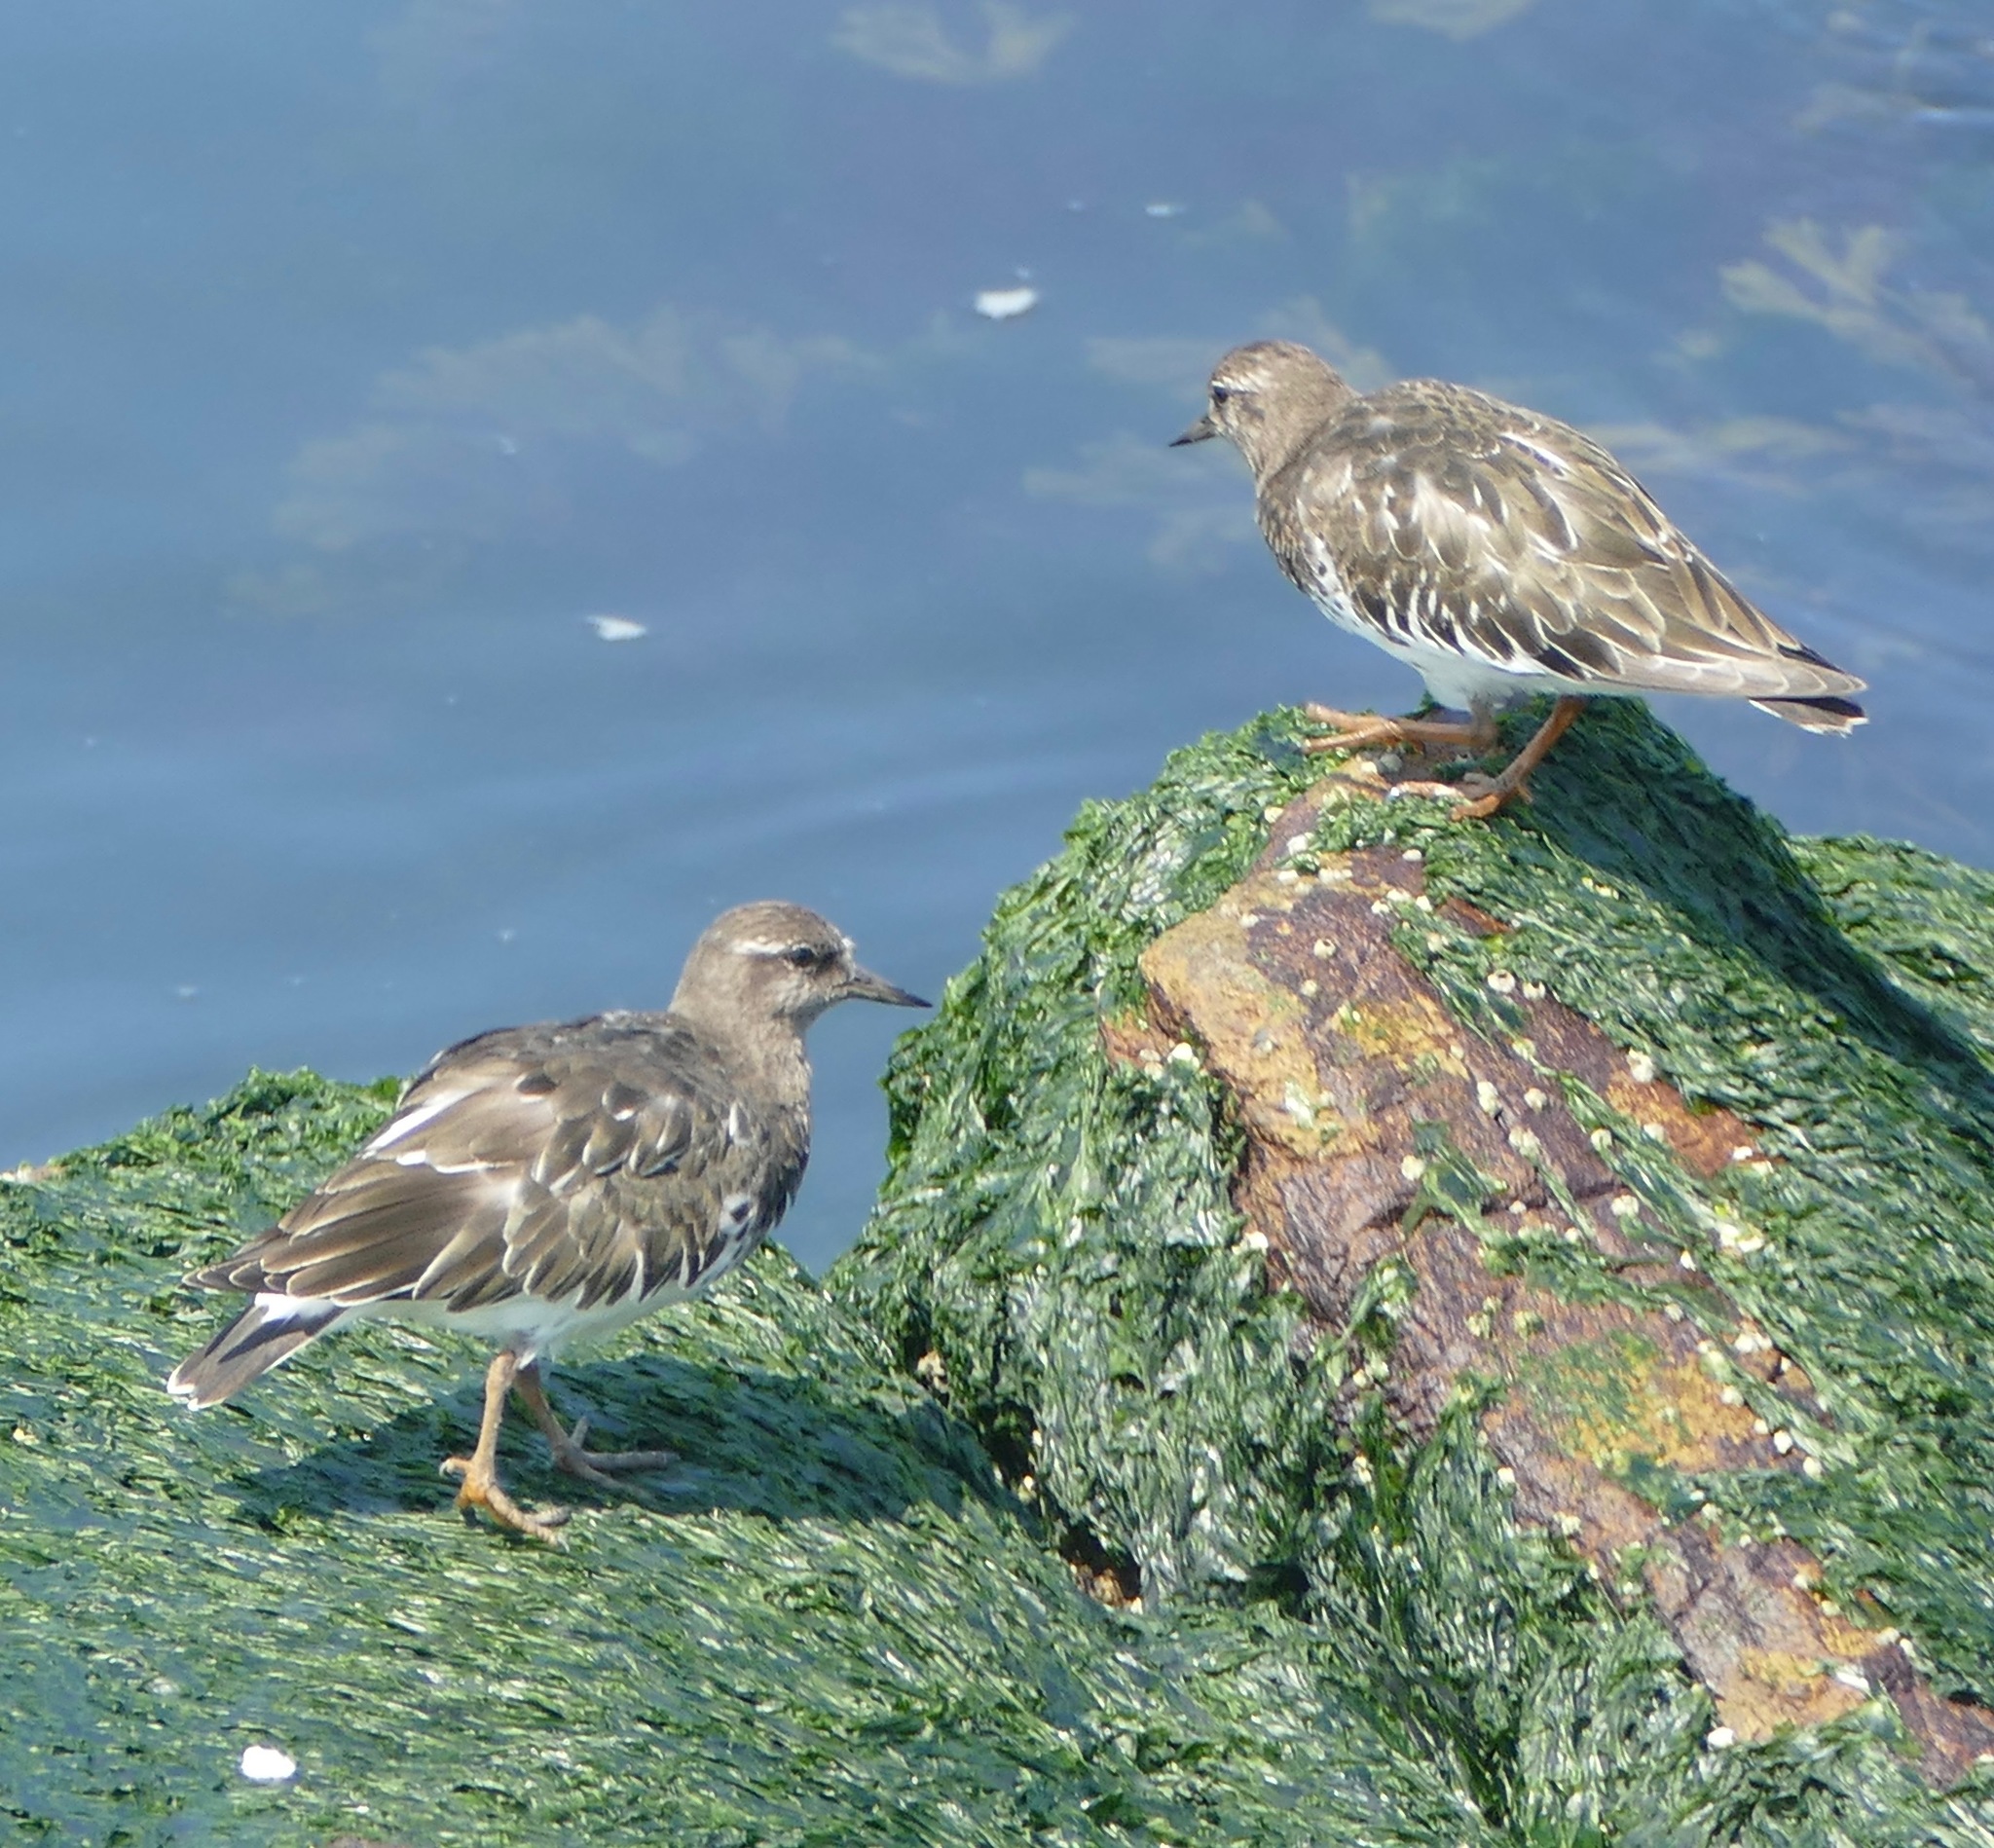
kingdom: Animalia
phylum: Chordata
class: Aves
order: Charadriiformes
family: Scolopacidae
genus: Arenaria
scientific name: Arenaria melanocephala
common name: Black turnstone
